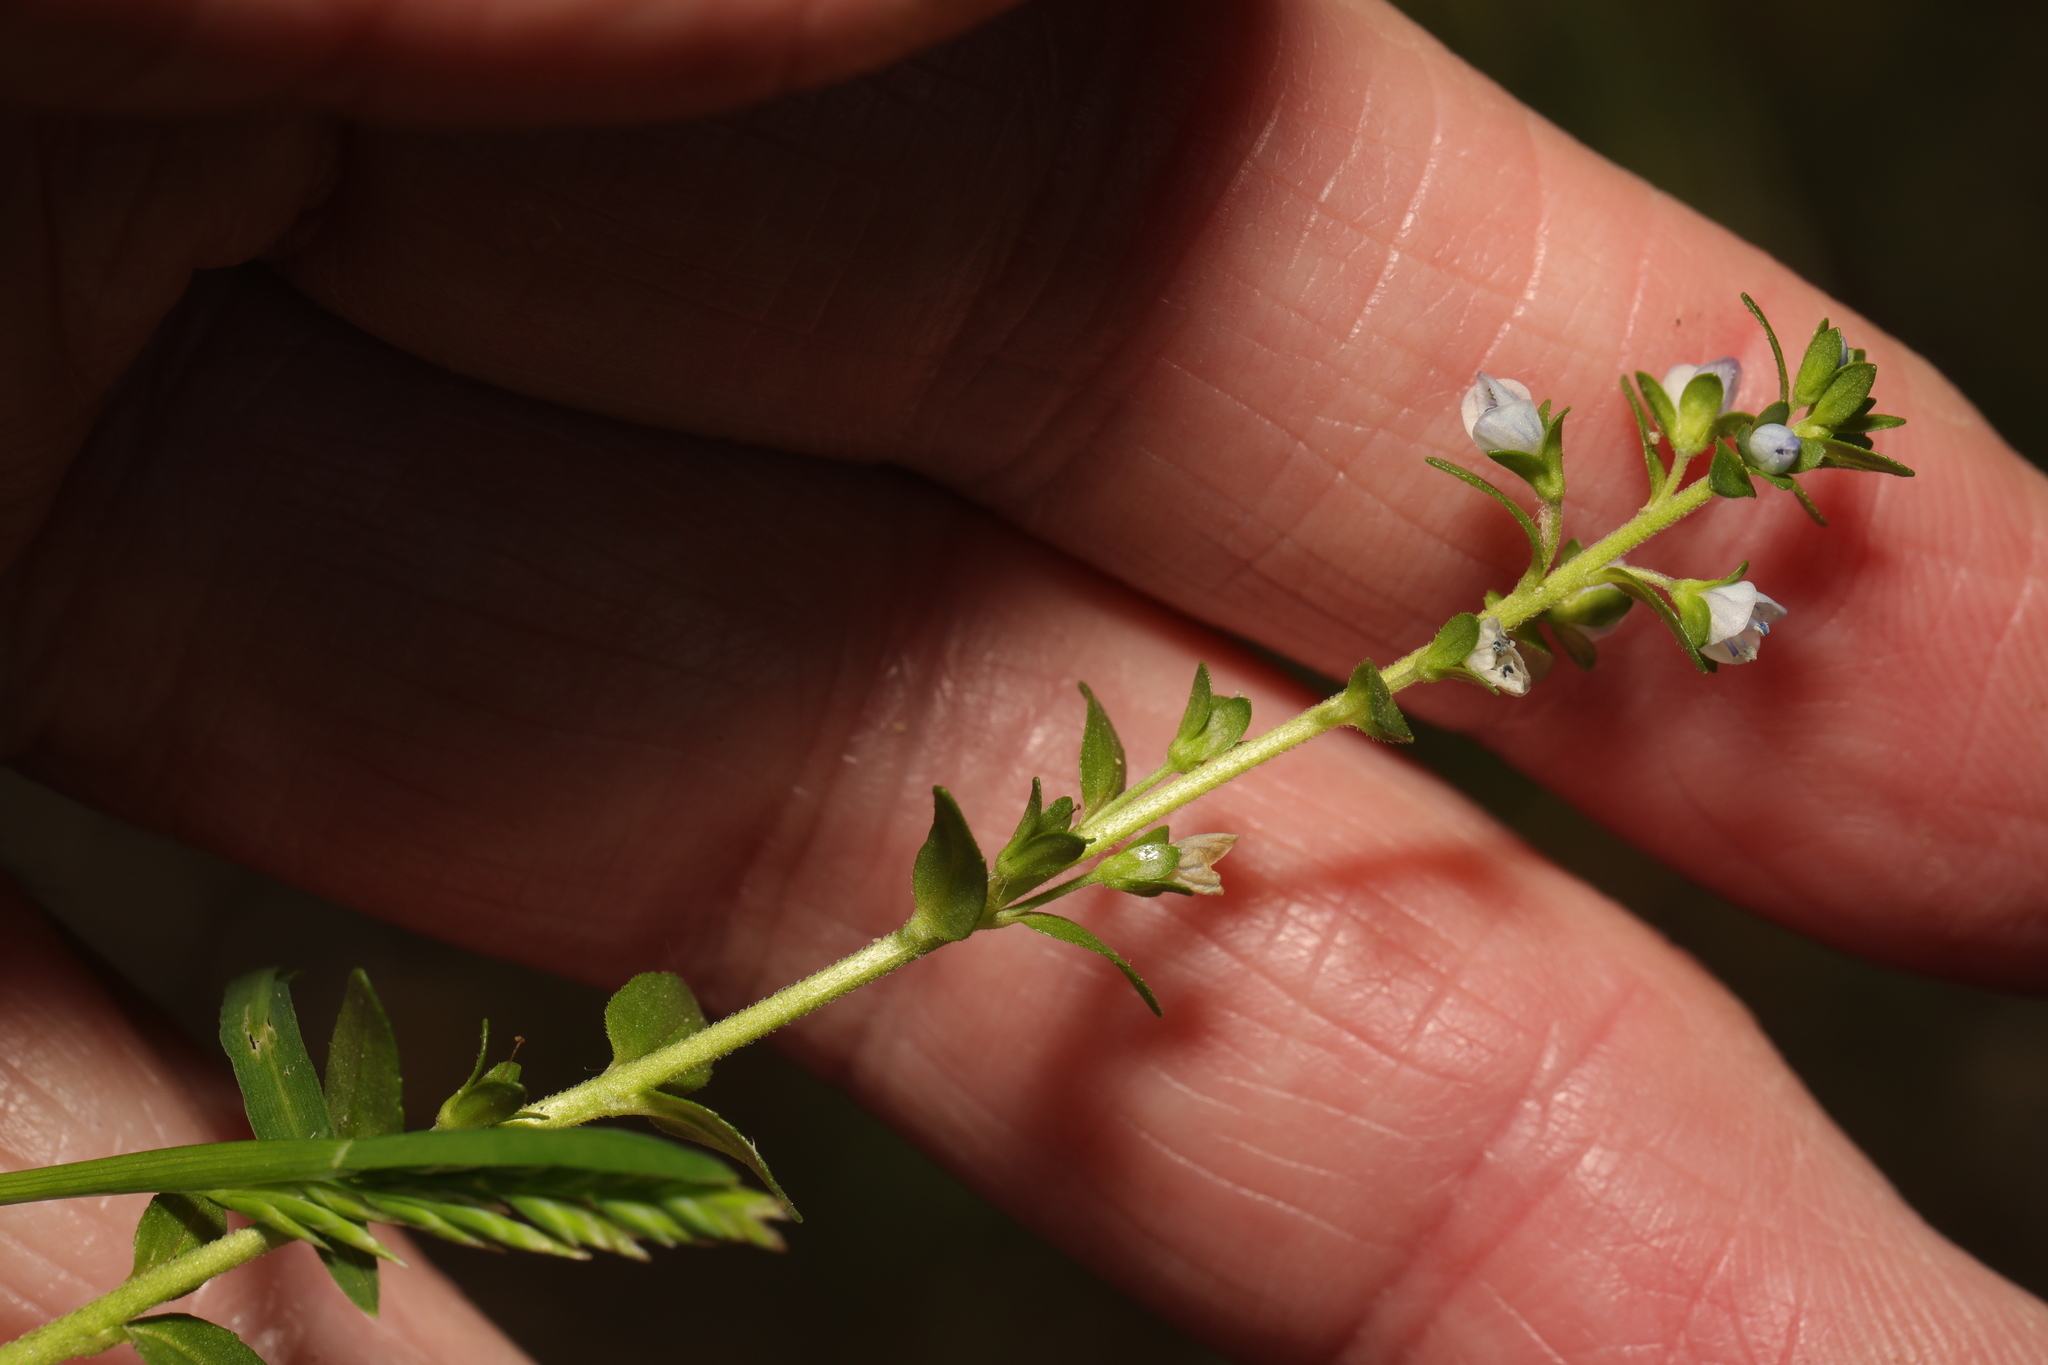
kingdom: Plantae
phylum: Tracheophyta
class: Magnoliopsida
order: Lamiales
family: Plantaginaceae
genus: Veronica
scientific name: Veronica serpyllifolia
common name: Thyme-leaved speedwell
